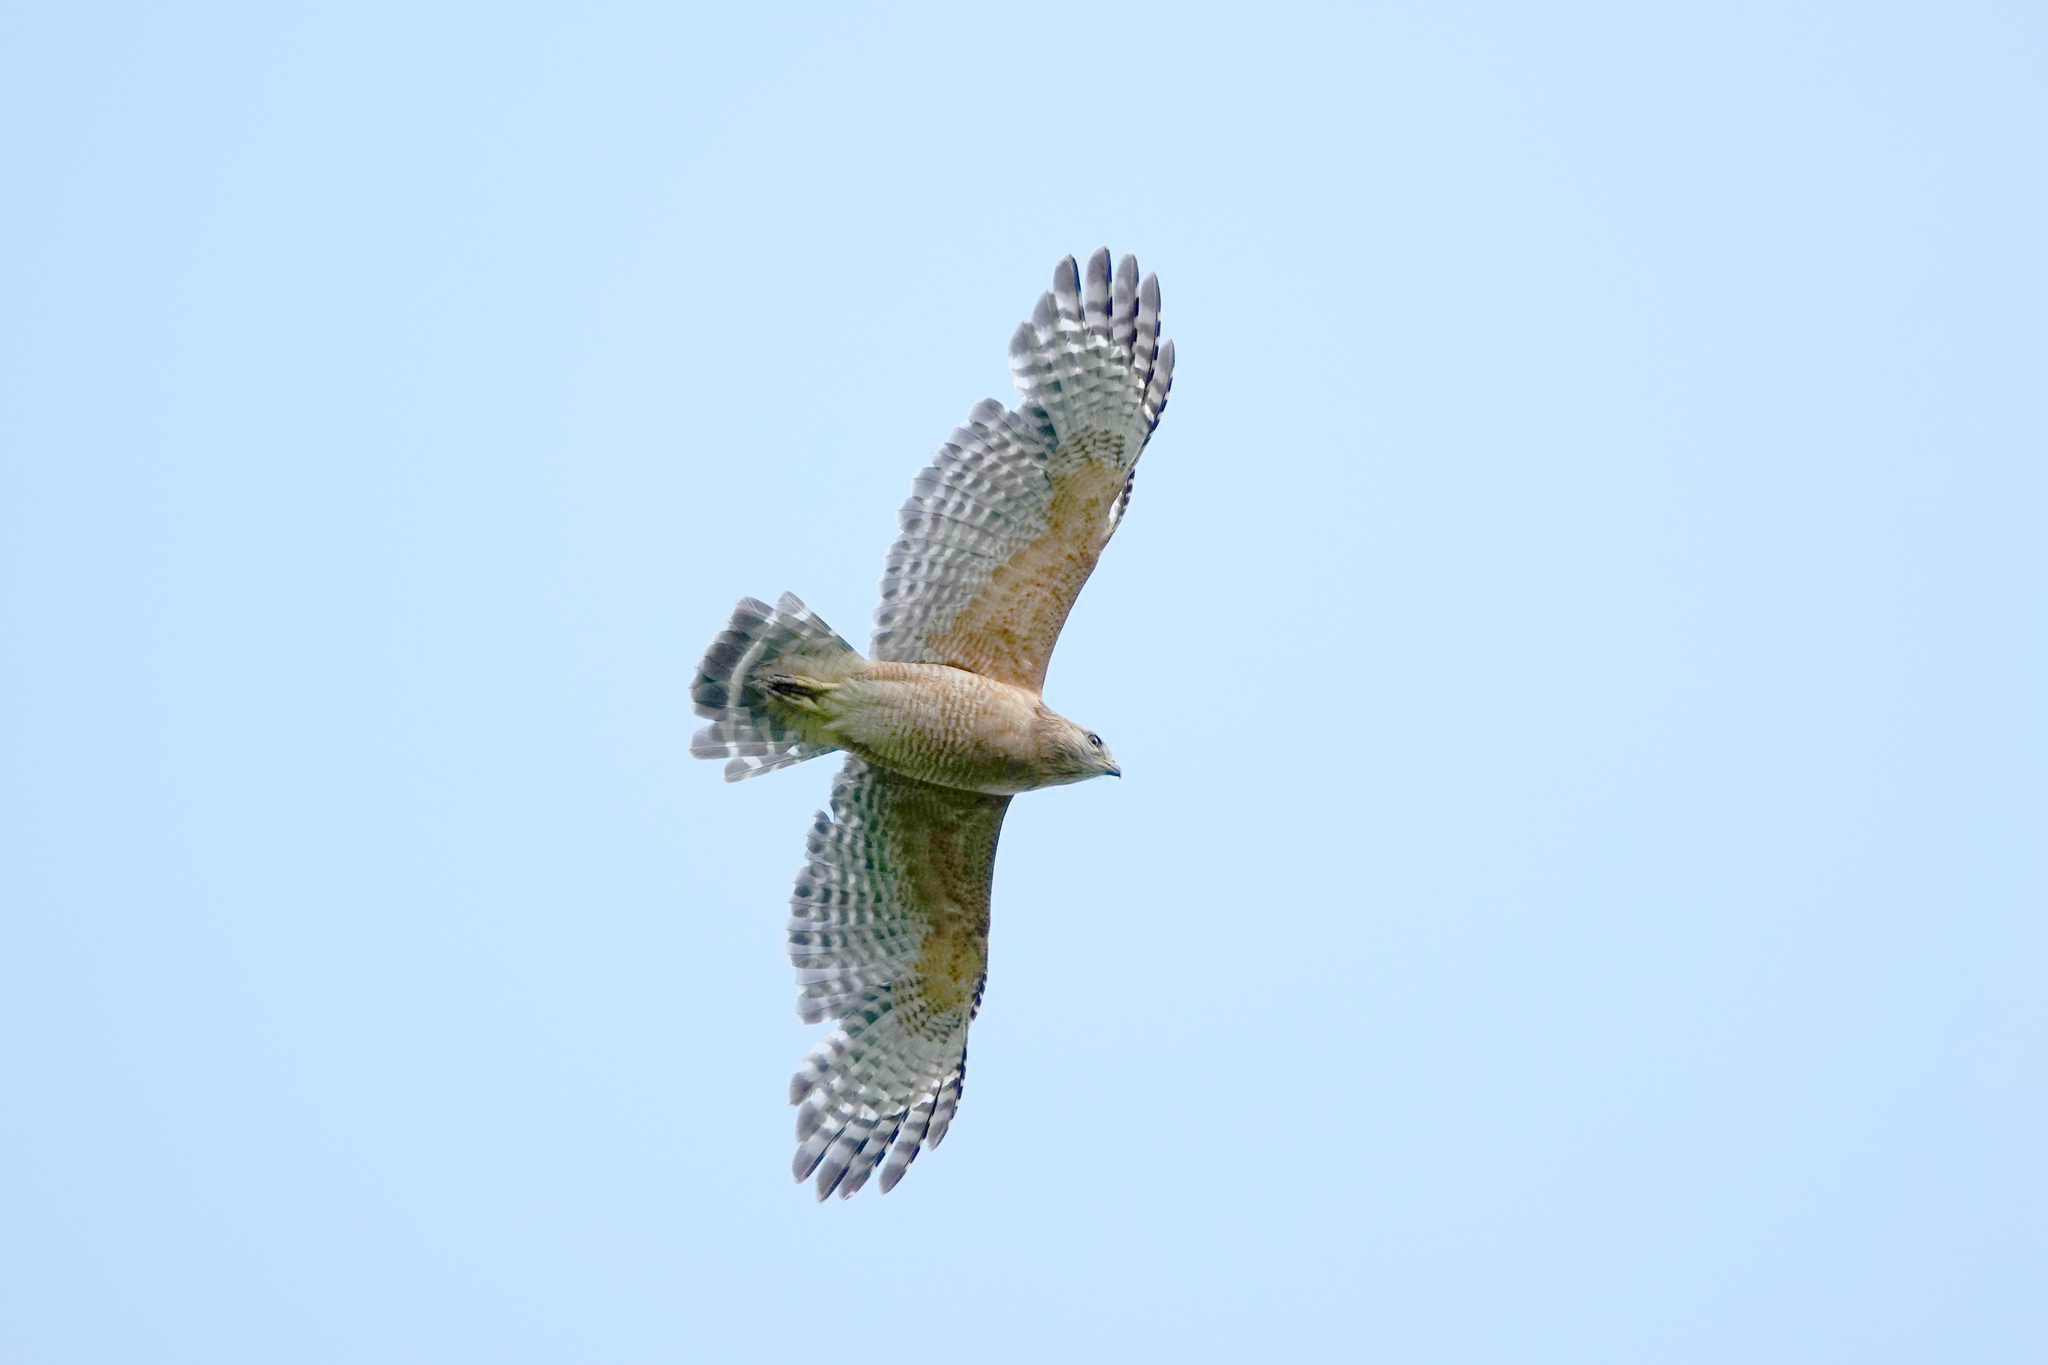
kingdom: Animalia
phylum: Chordata
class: Aves
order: Accipitriformes
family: Accipitridae
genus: Buteo
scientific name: Buteo lineatus
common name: Red-shouldered hawk
